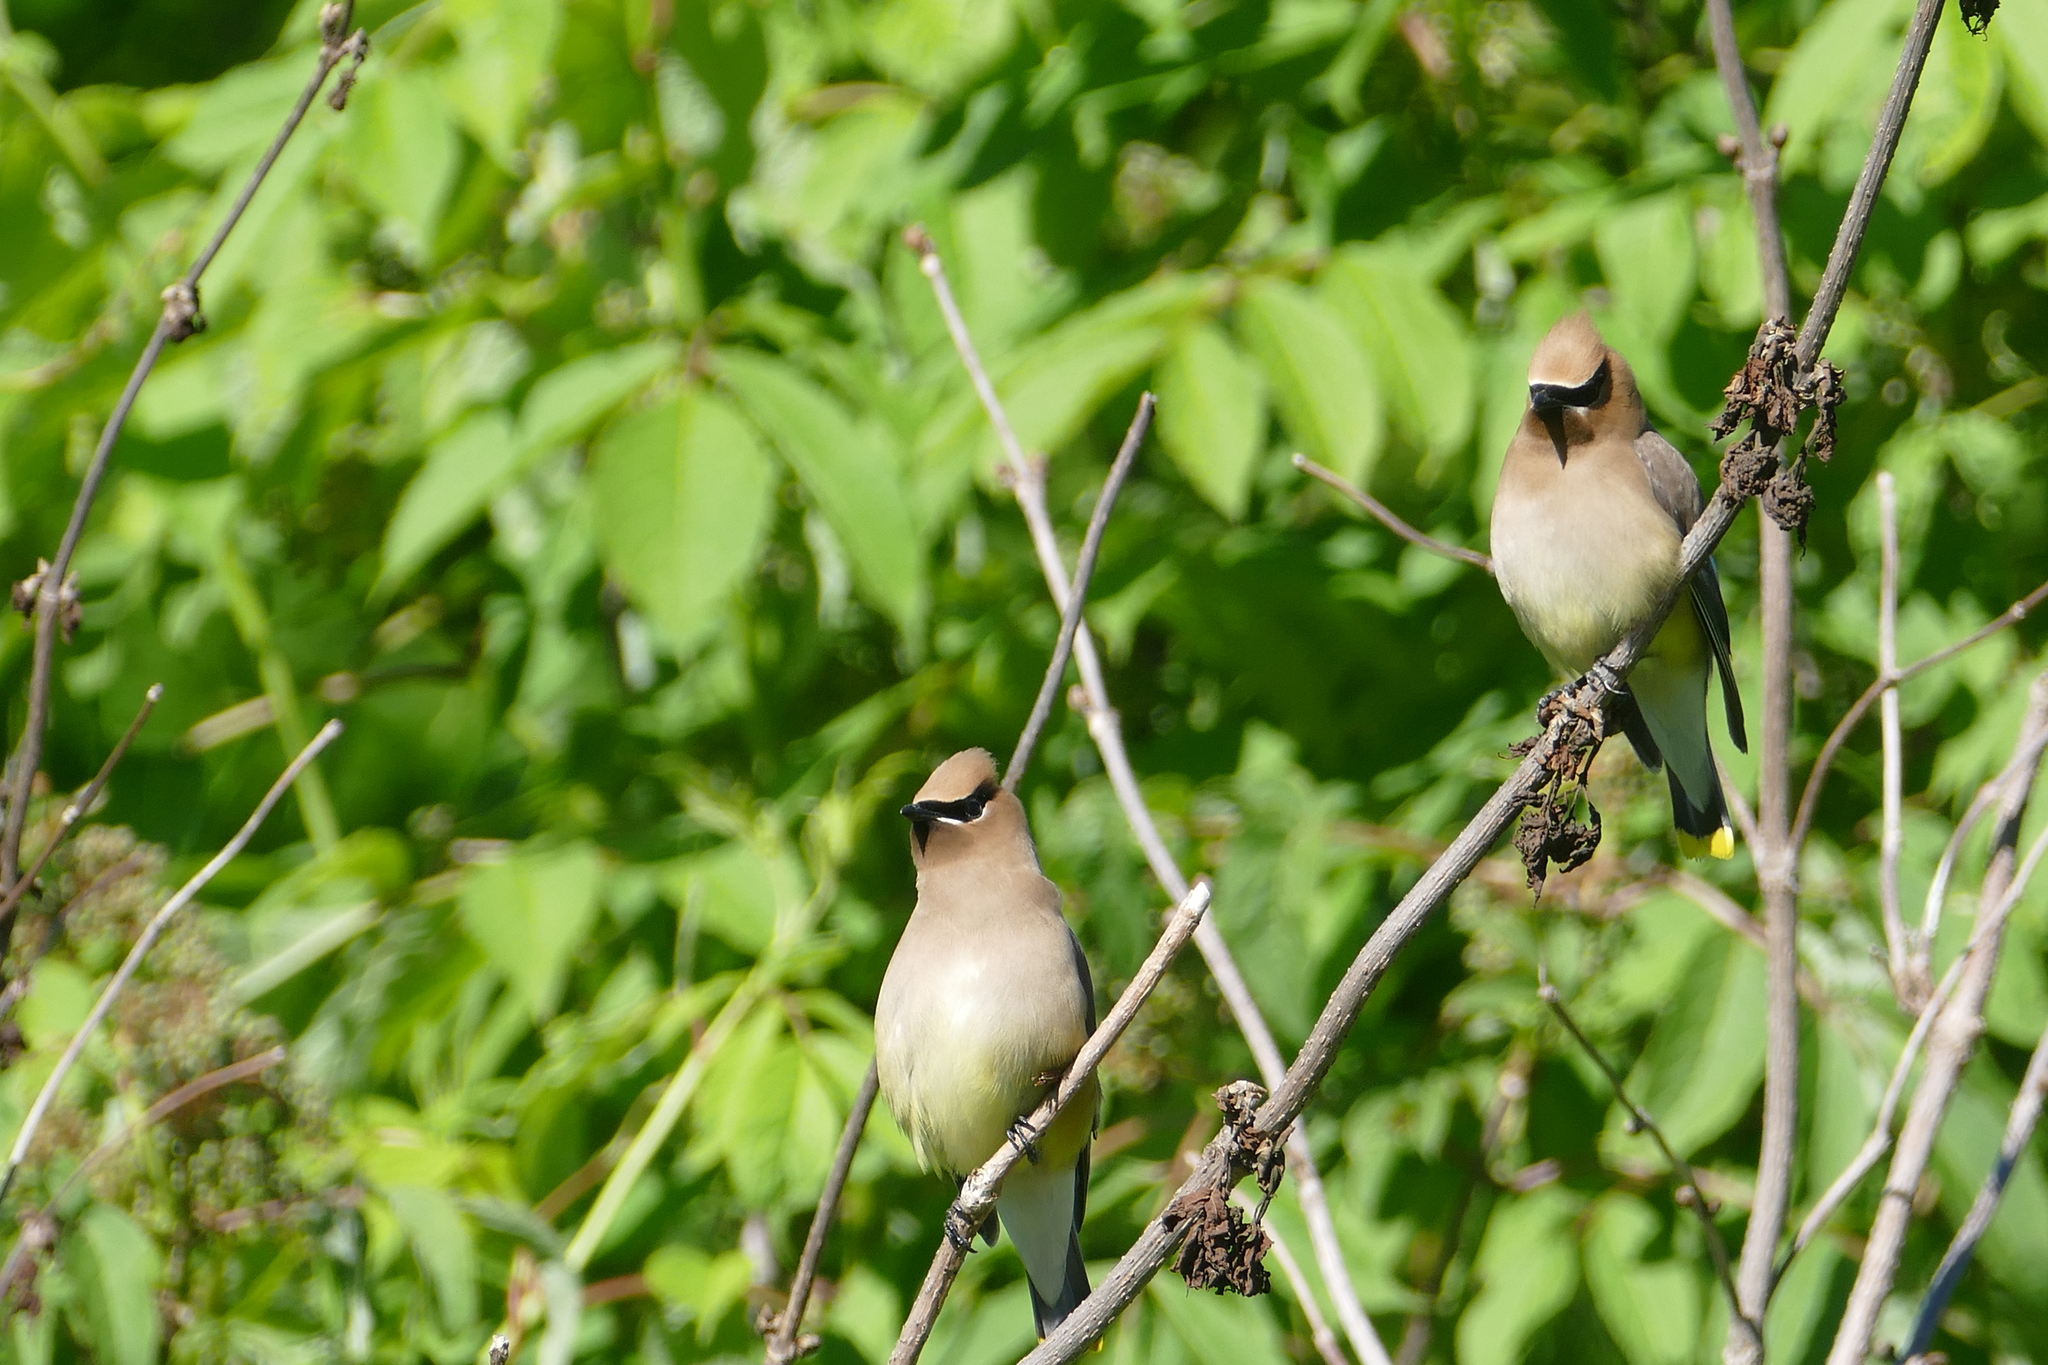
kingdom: Animalia
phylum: Chordata
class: Aves
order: Passeriformes
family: Bombycillidae
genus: Bombycilla
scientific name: Bombycilla cedrorum
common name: Cedar waxwing
